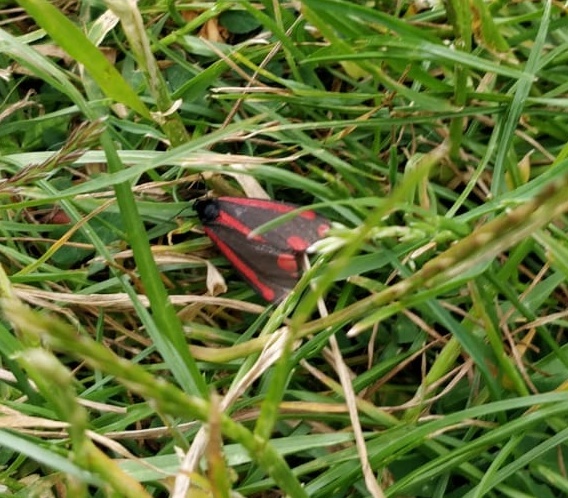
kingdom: Animalia
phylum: Arthropoda
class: Insecta
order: Lepidoptera
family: Erebidae
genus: Tyria
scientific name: Tyria jacobaeae
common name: Cinnabar
